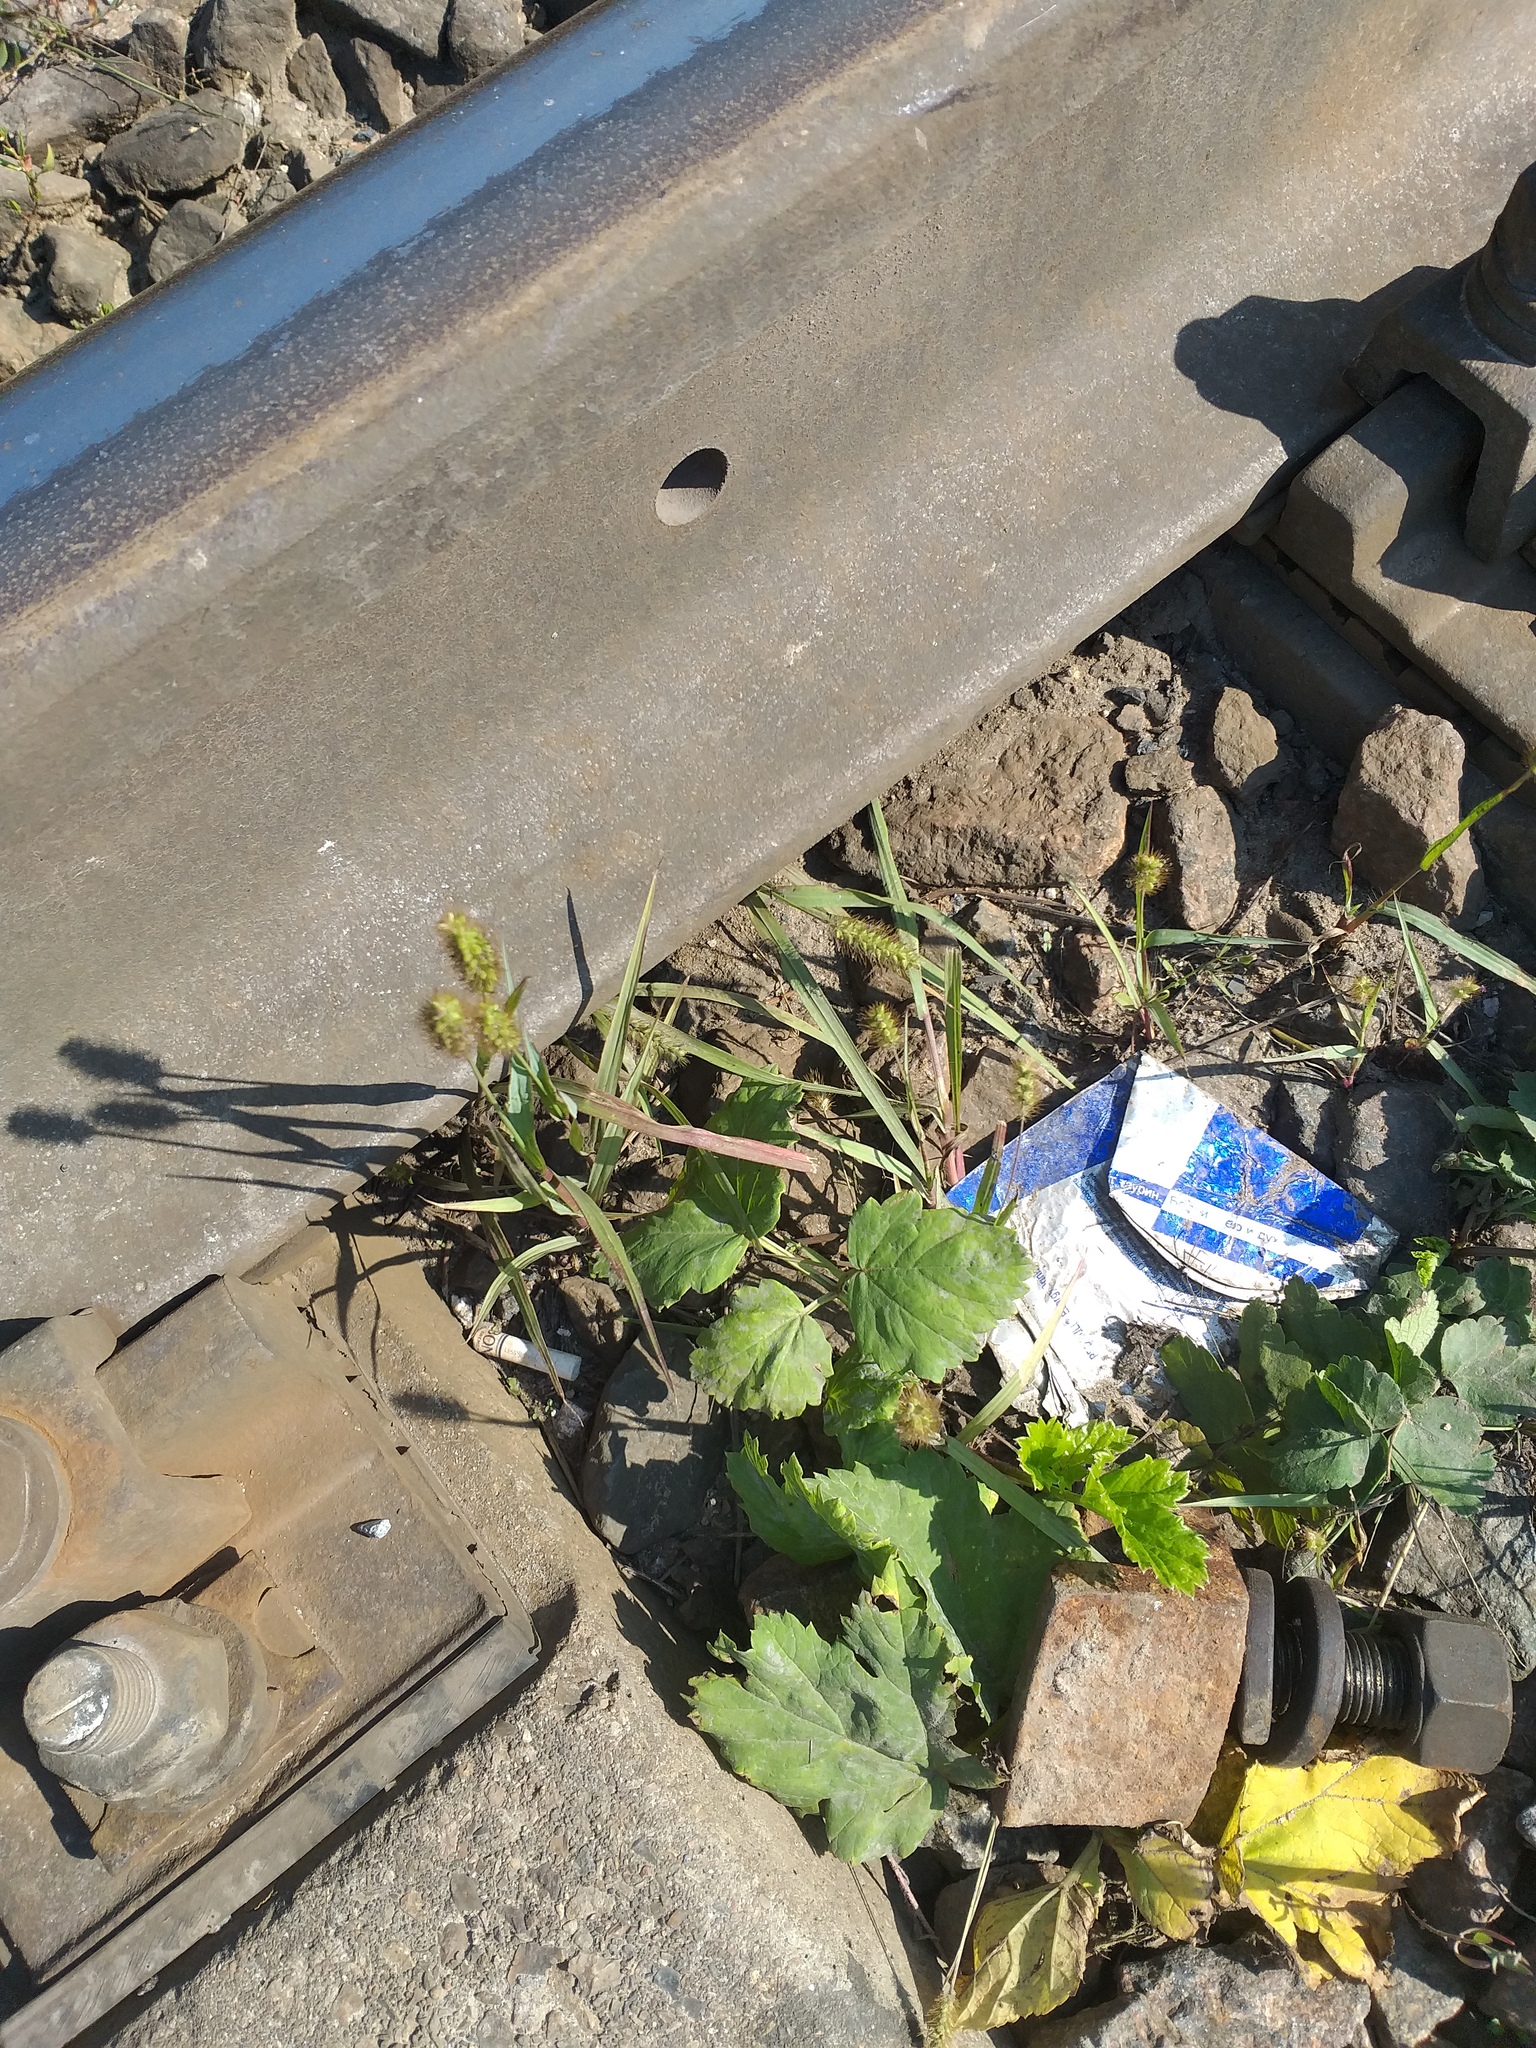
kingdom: Plantae
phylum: Tracheophyta
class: Liliopsida
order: Poales
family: Poaceae
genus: Setaria
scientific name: Setaria pumila
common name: Yellow bristle-grass
